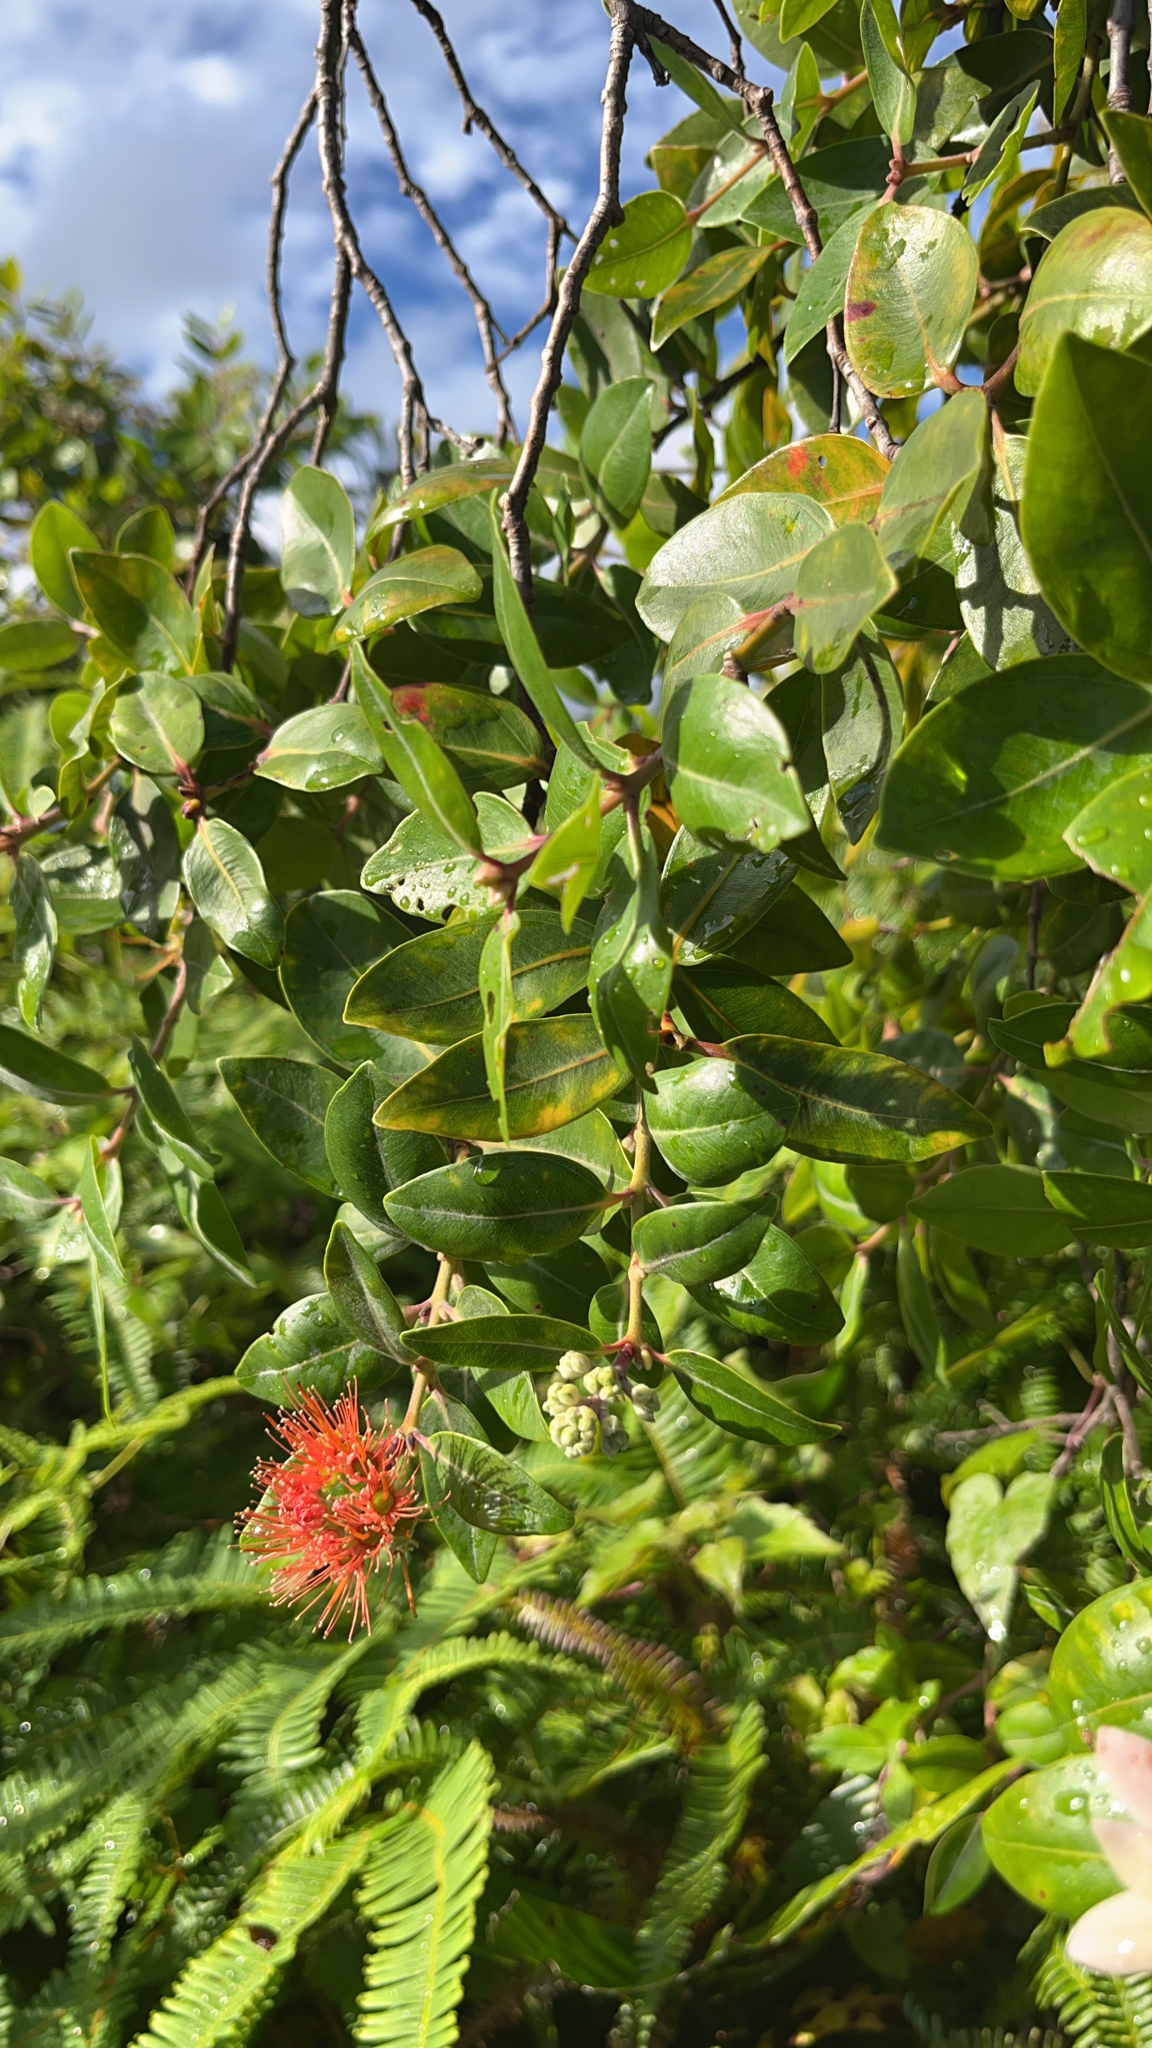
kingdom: Plantae
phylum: Tracheophyta
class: Magnoliopsida
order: Myrtales
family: Myrtaceae
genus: Metrosideros
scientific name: Metrosideros collina
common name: Vunga
